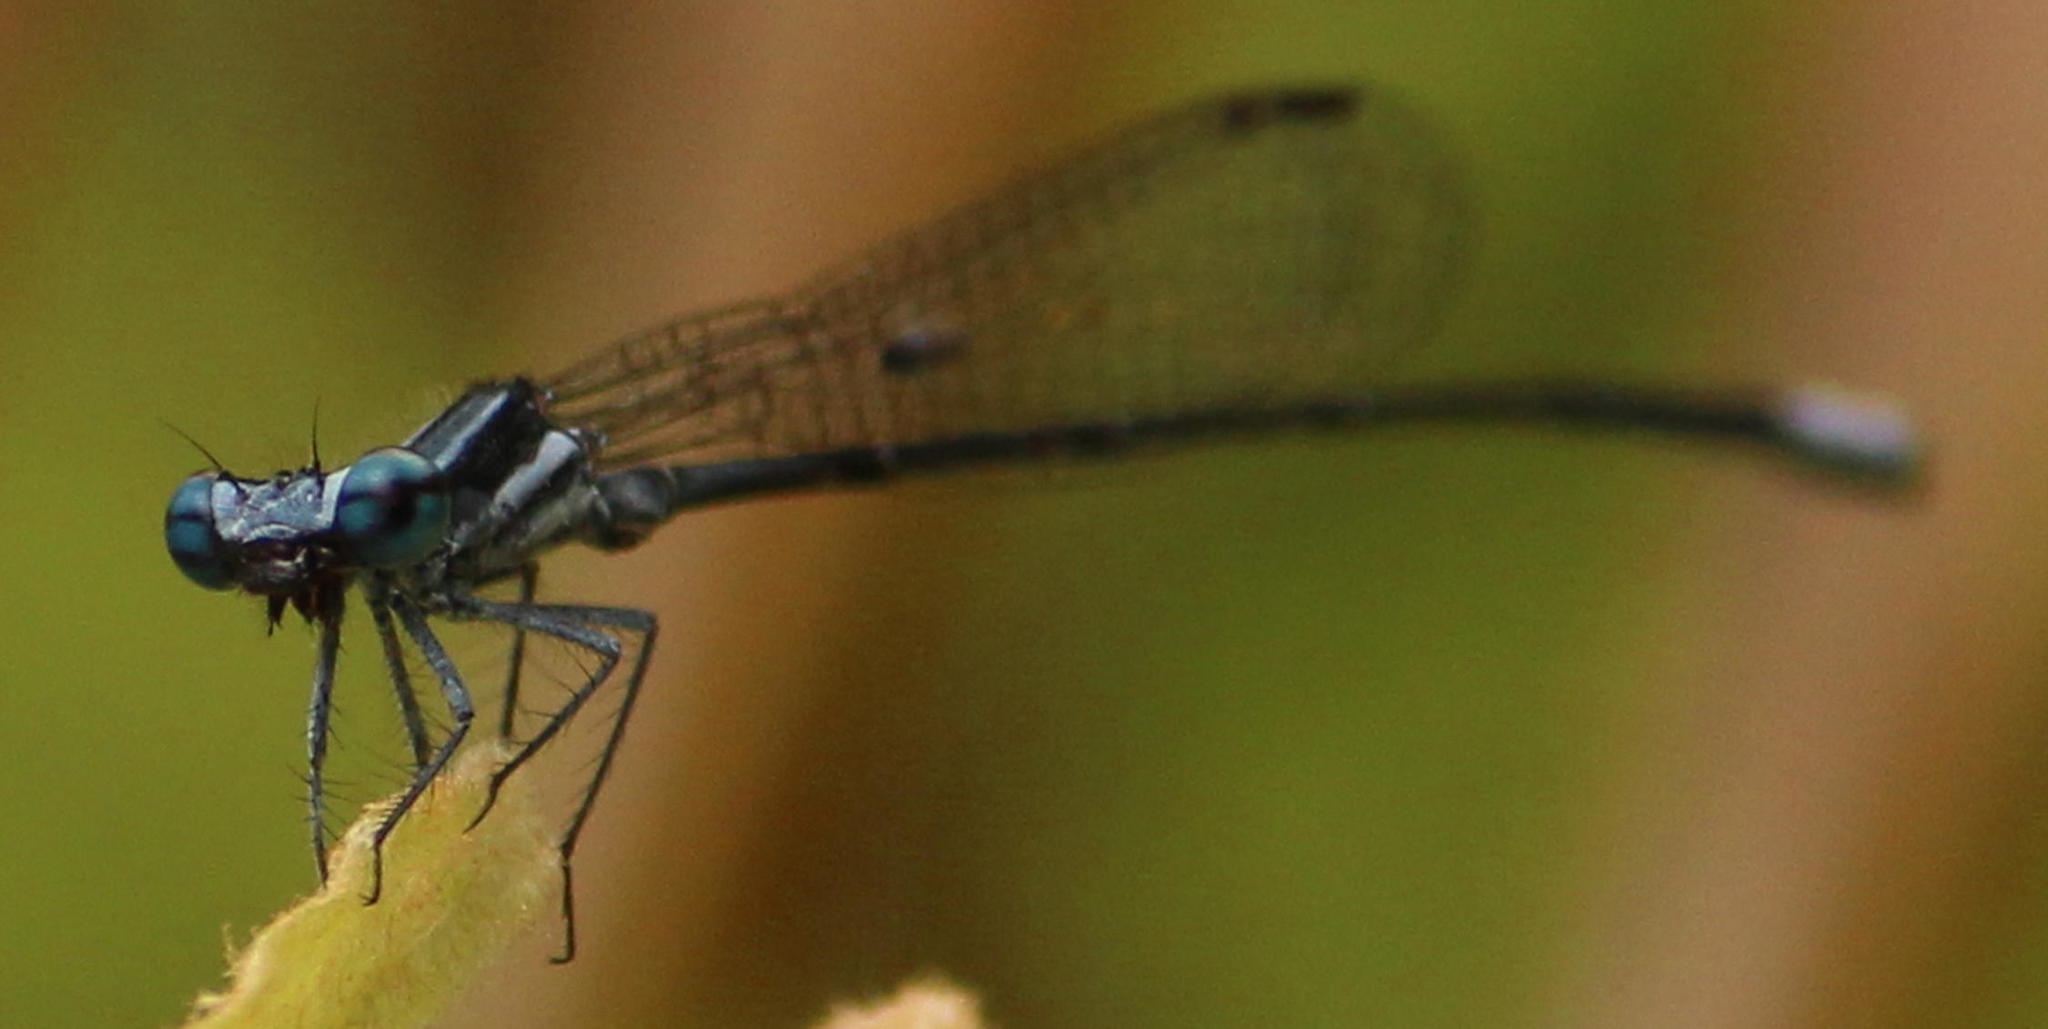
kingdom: Animalia
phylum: Arthropoda
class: Insecta
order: Odonata
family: Platycnemididae
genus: Elattoneura
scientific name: Elattoneura glauca
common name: Common threadtail
